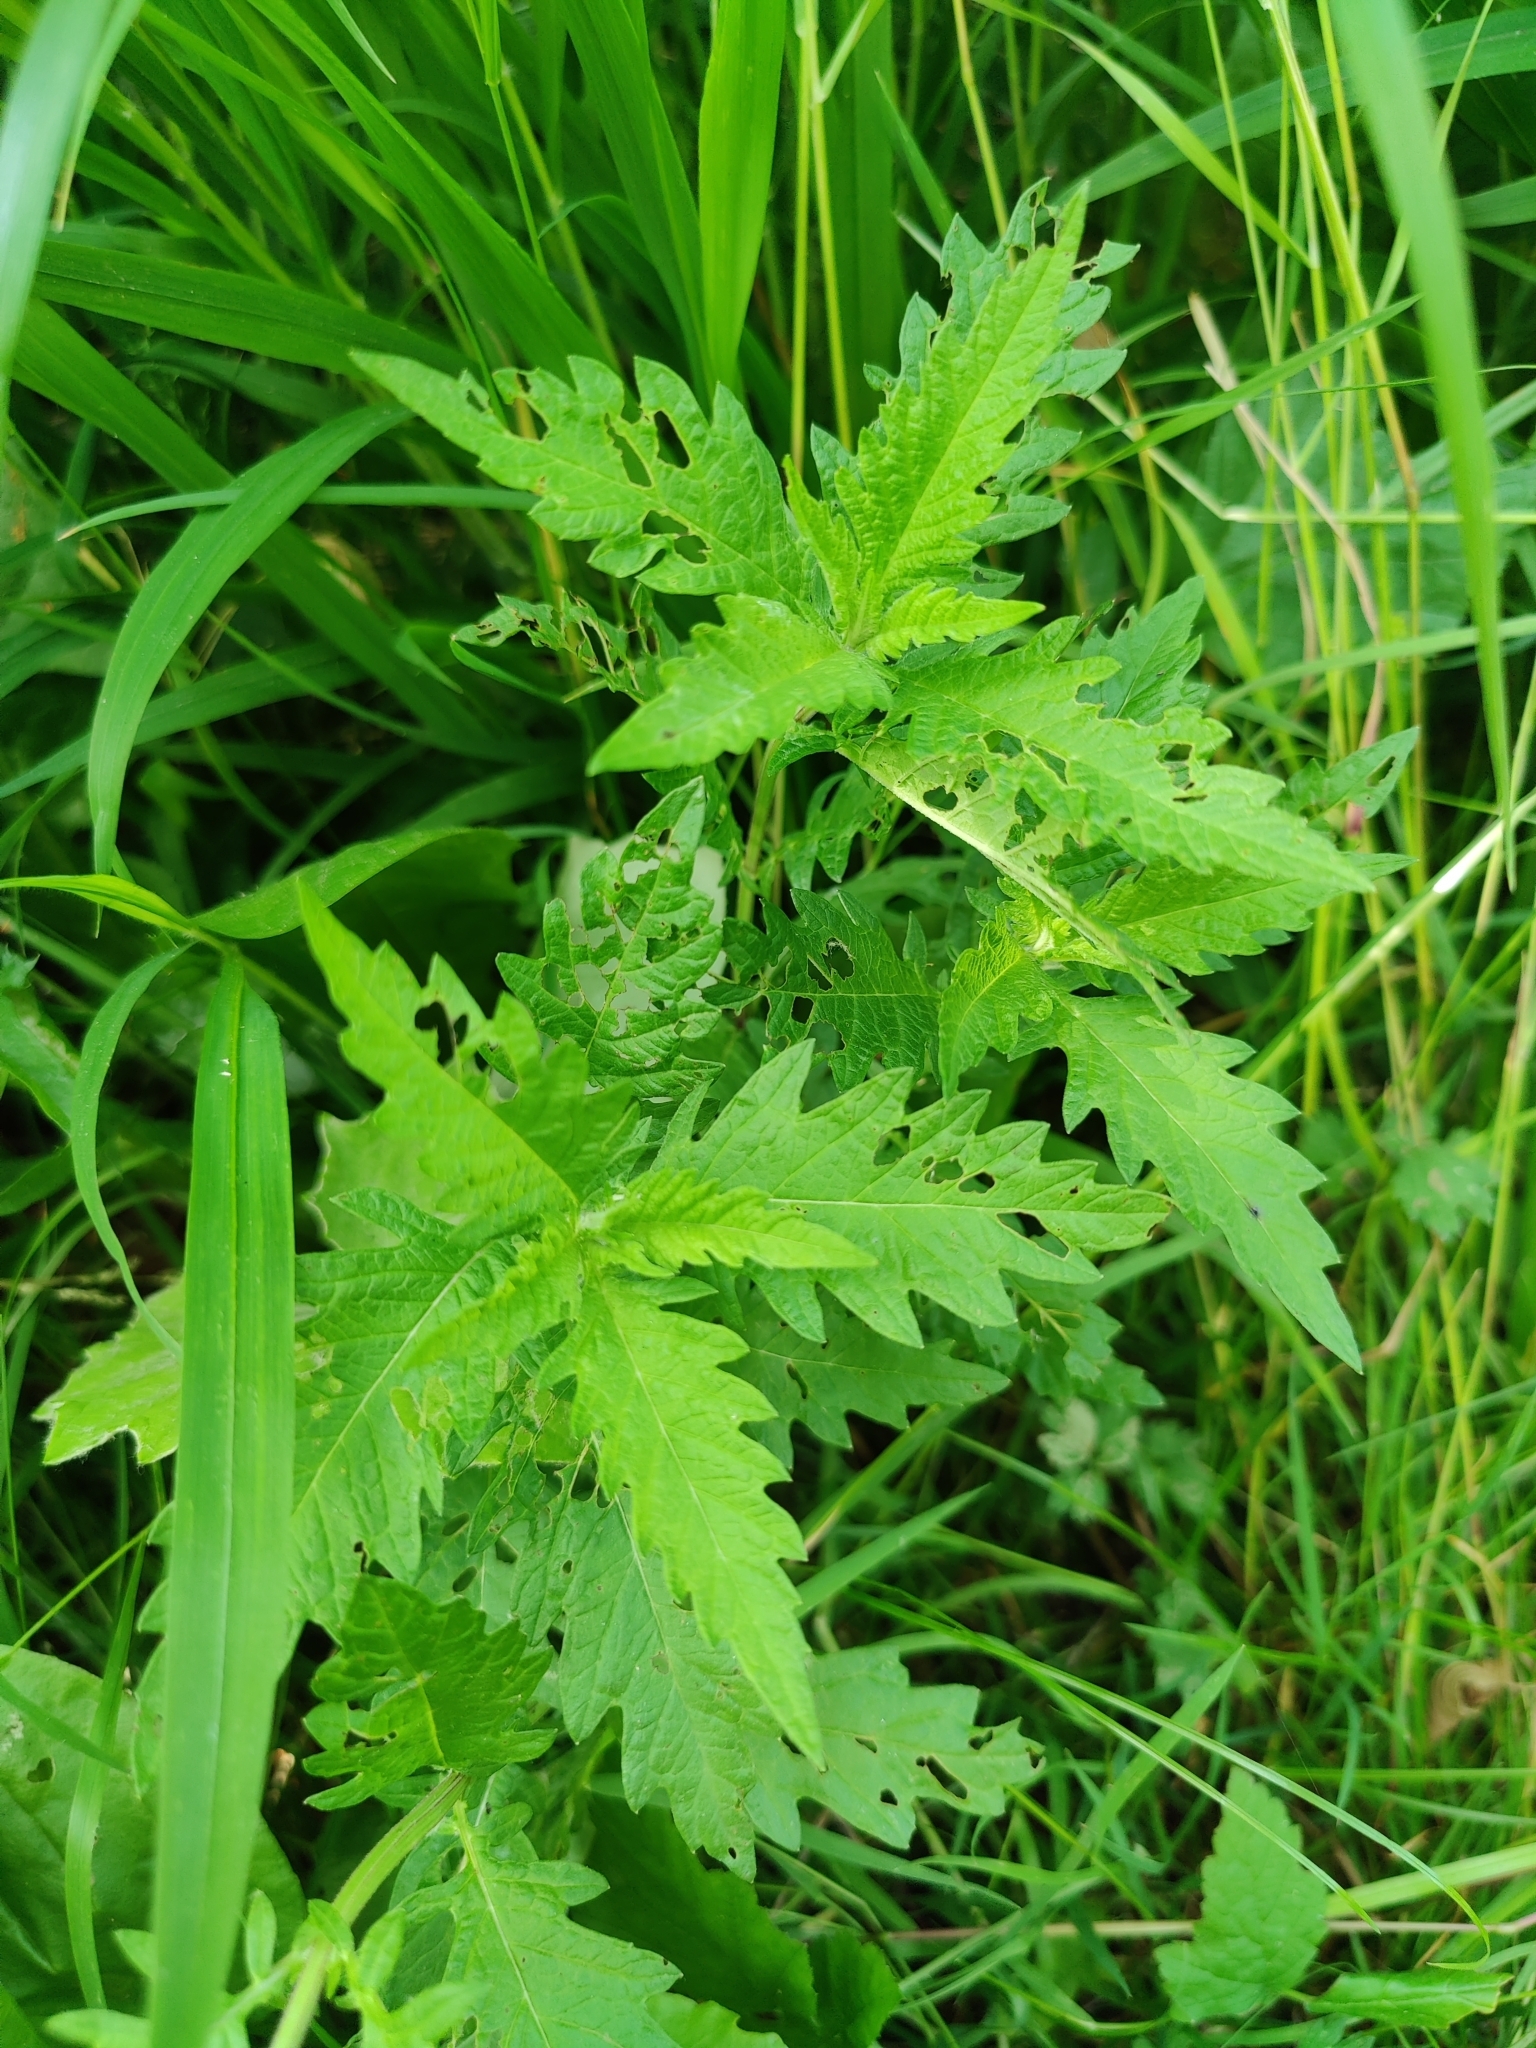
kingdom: Plantae
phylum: Tracheophyta
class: Magnoliopsida
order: Lamiales
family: Lamiaceae
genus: Lycopus
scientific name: Lycopus europaeus
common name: European bugleweed
